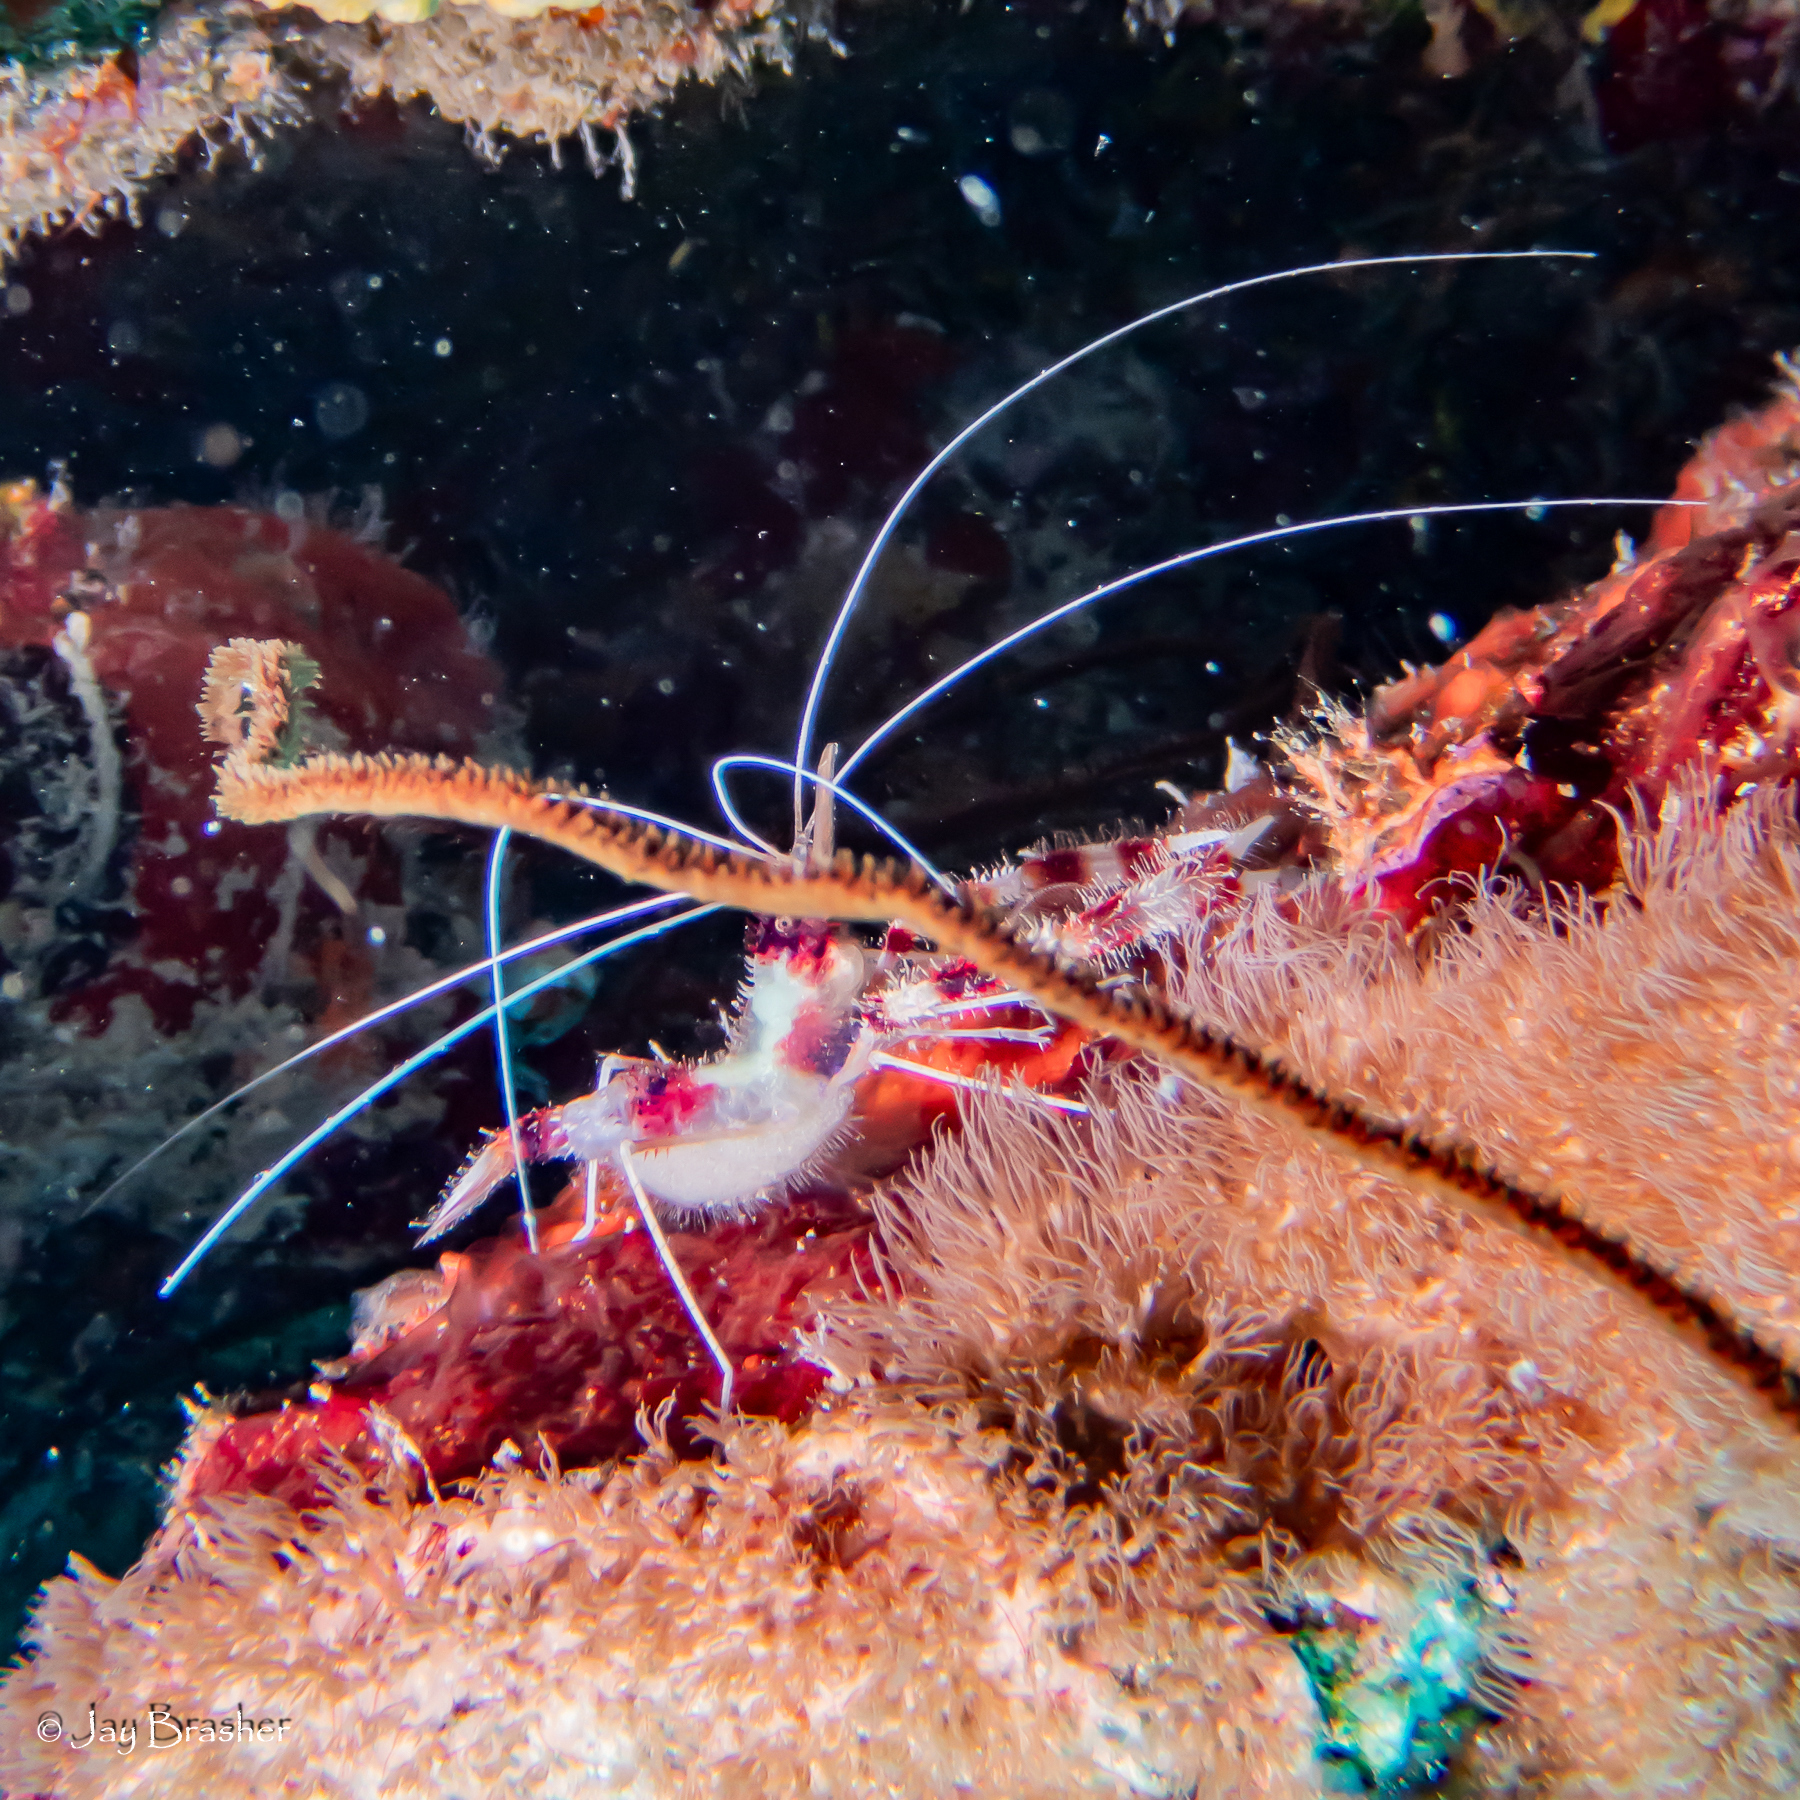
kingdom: Animalia
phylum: Arthropoda
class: Malacostraca
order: Decapoda
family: Stenopodidae
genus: Stenopus
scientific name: Stenopus hispidus
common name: Banded coral shrimp
